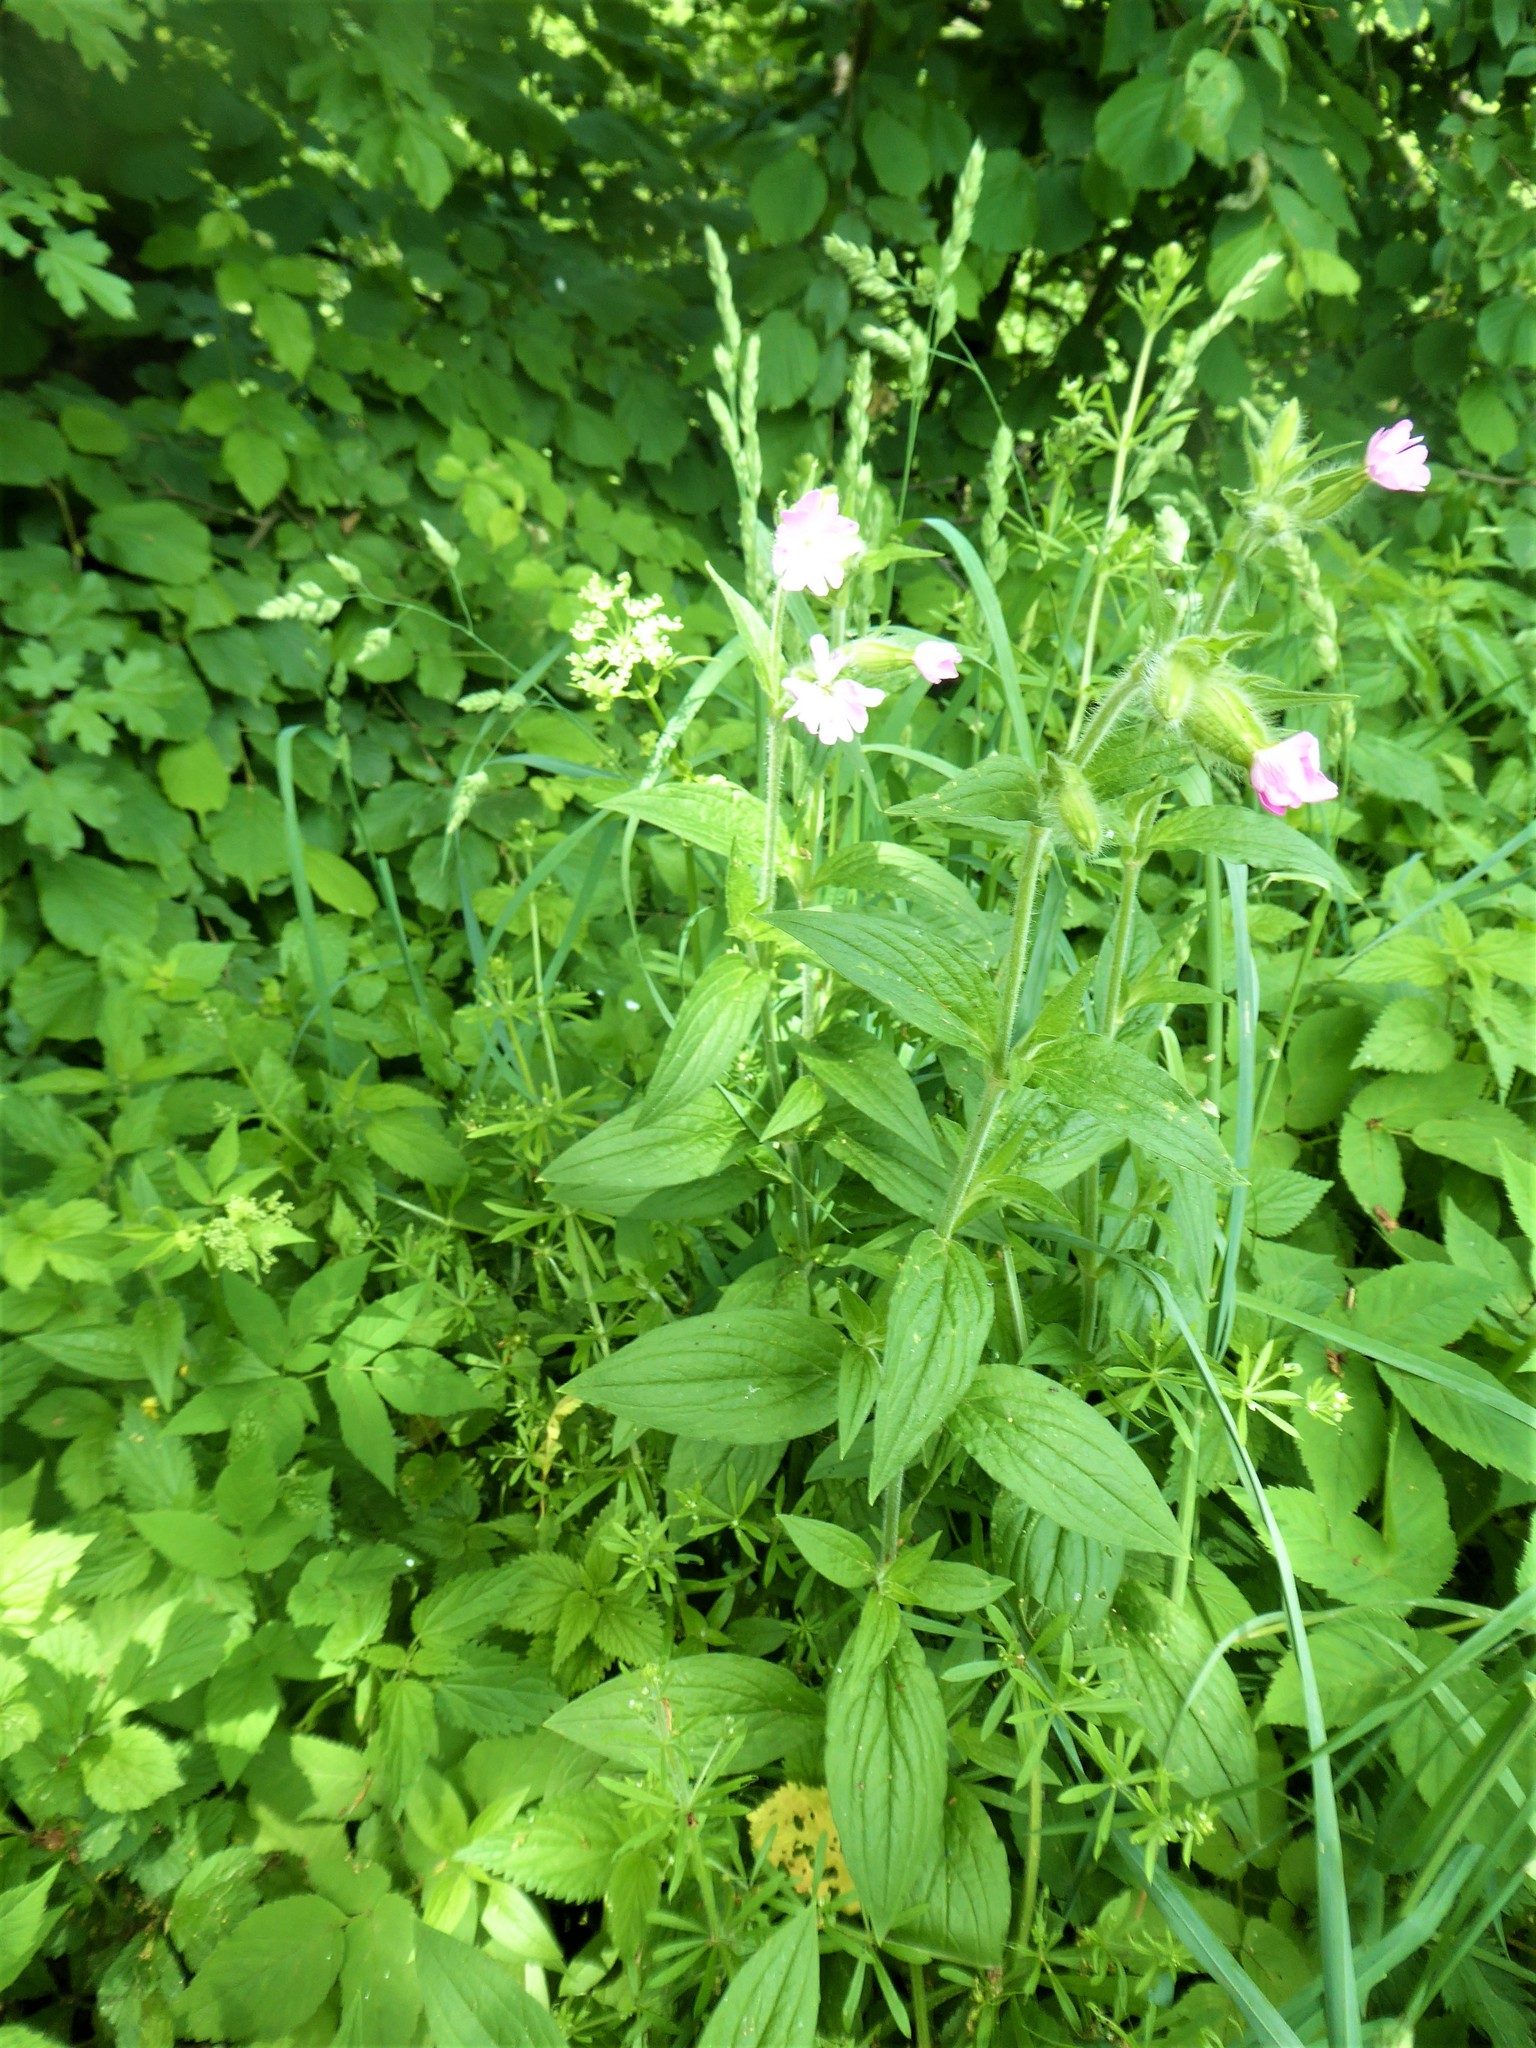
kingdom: Plantae
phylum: Tracheophyta
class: Magnoliopsida
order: Caryophyllales
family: Caryophyllaceae
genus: Silene
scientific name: Silene dioica
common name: Red campion
